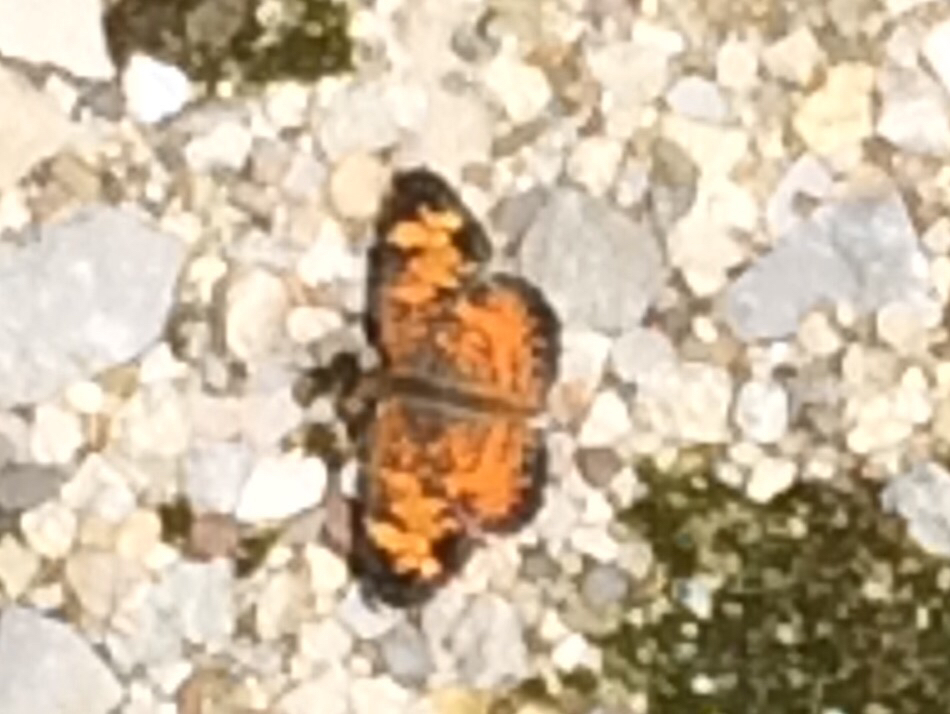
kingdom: Animalia
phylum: Arthropoda
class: Insecta
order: Lepidoptera
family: Nymphalidae
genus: Phyciodes
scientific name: Phyciodes tharos
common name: Pearl crescent
